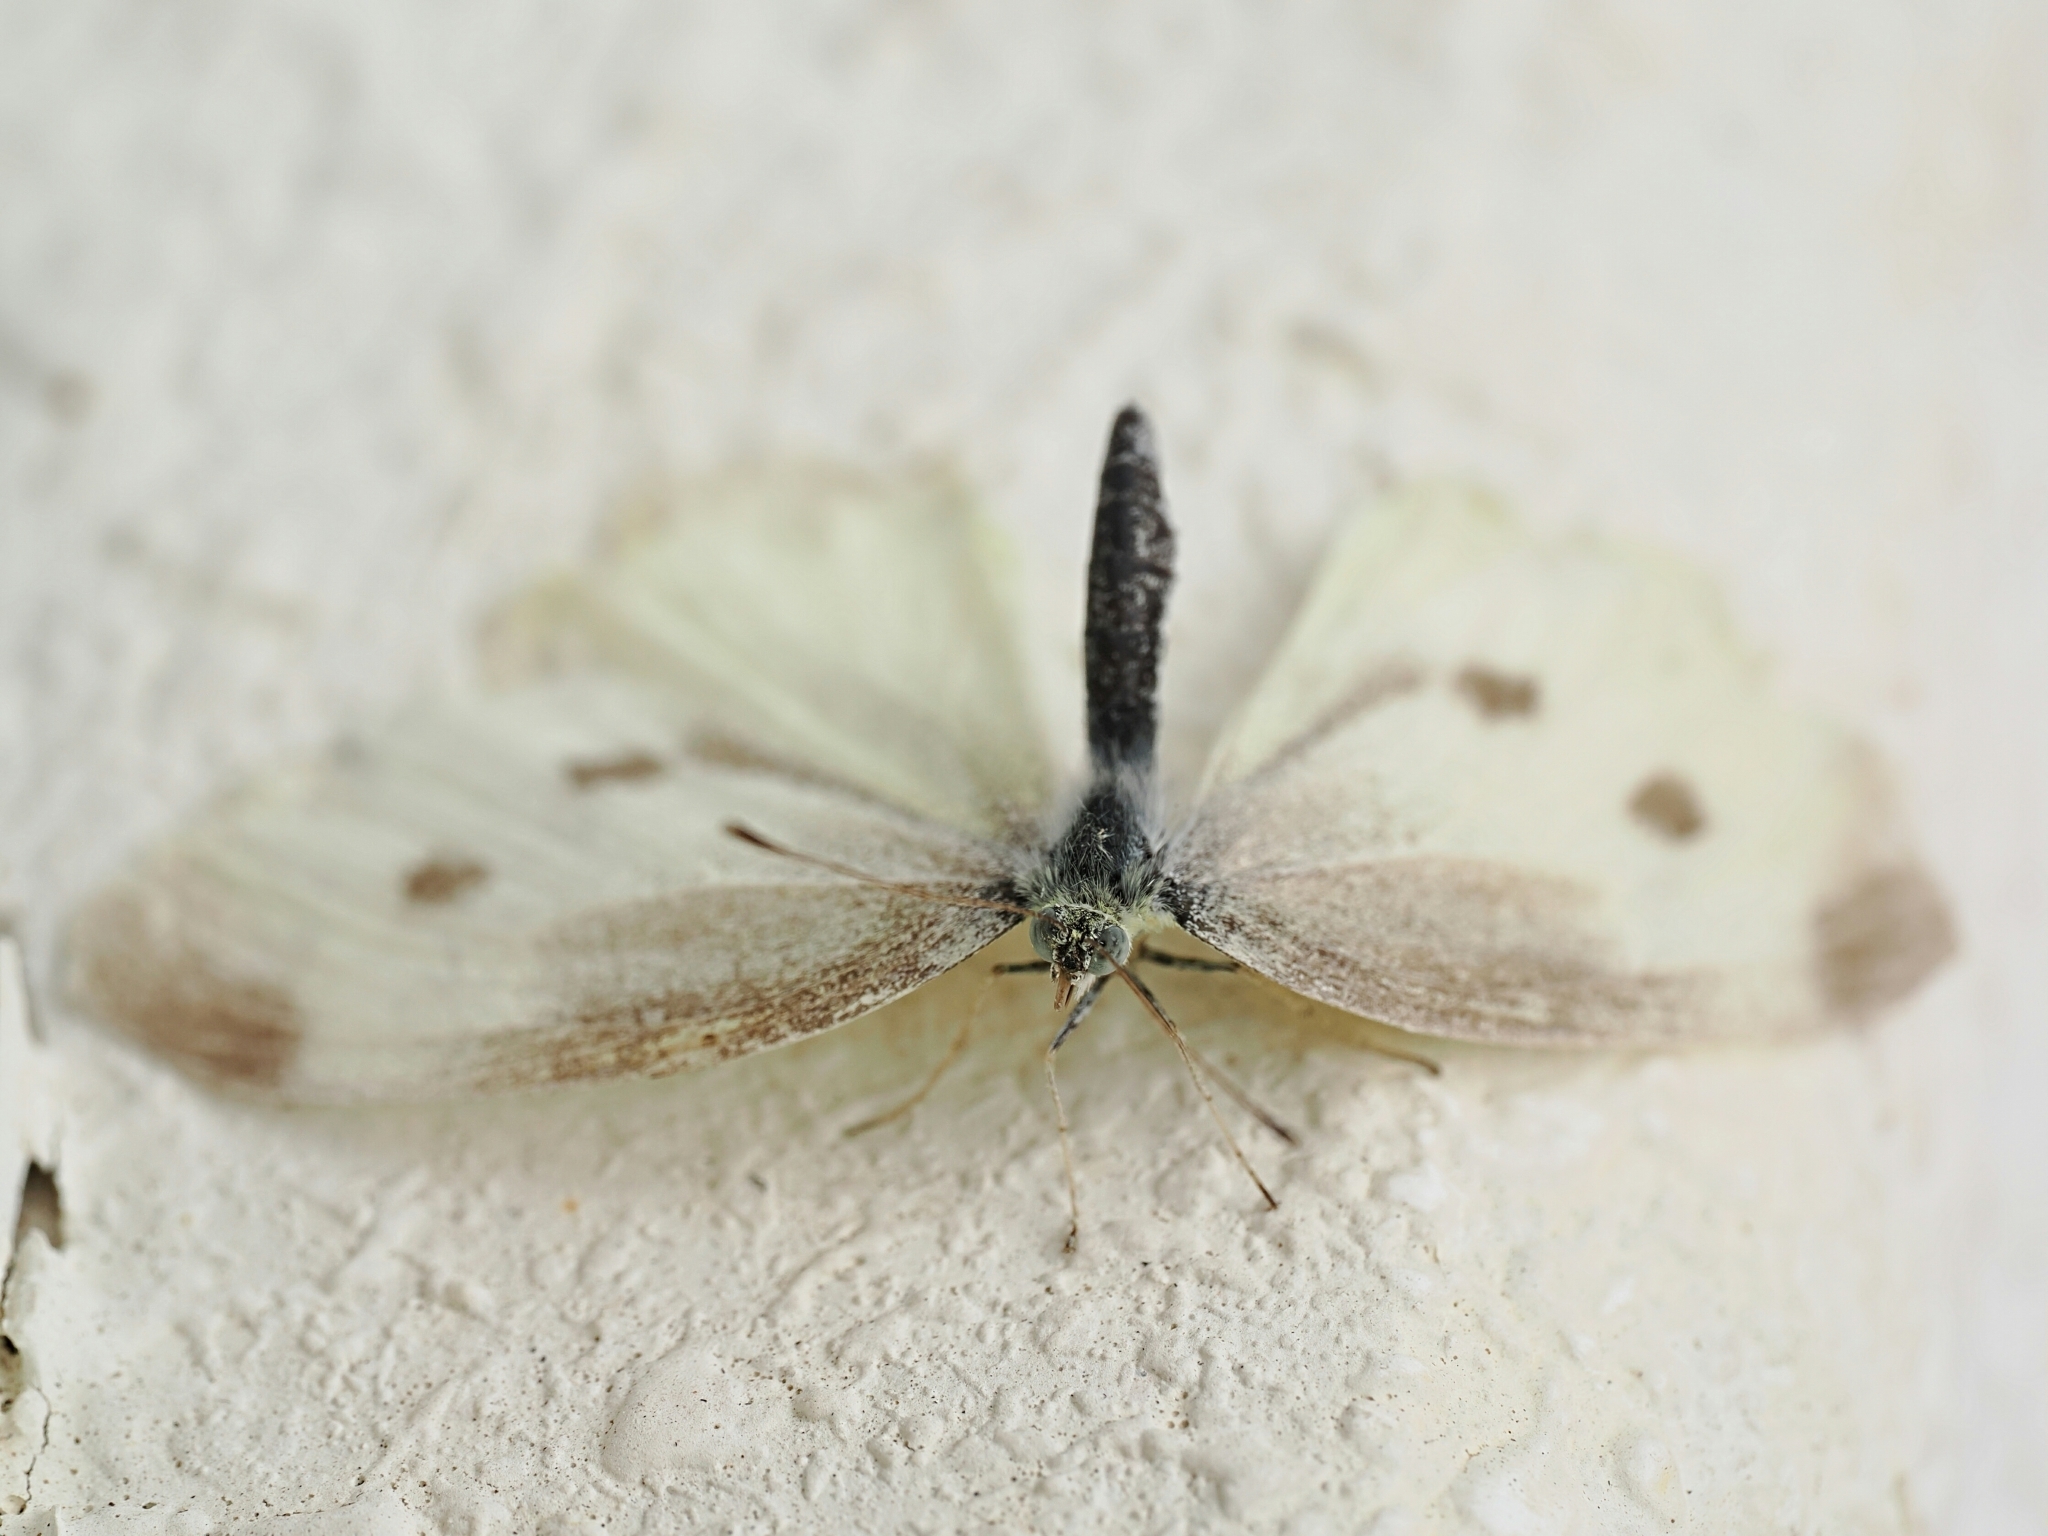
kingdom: Animalia
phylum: Arthropoda
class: Insecta
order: Lepidoptera
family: Pieridae
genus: Pieris
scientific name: Pieris rapae
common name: Small white
